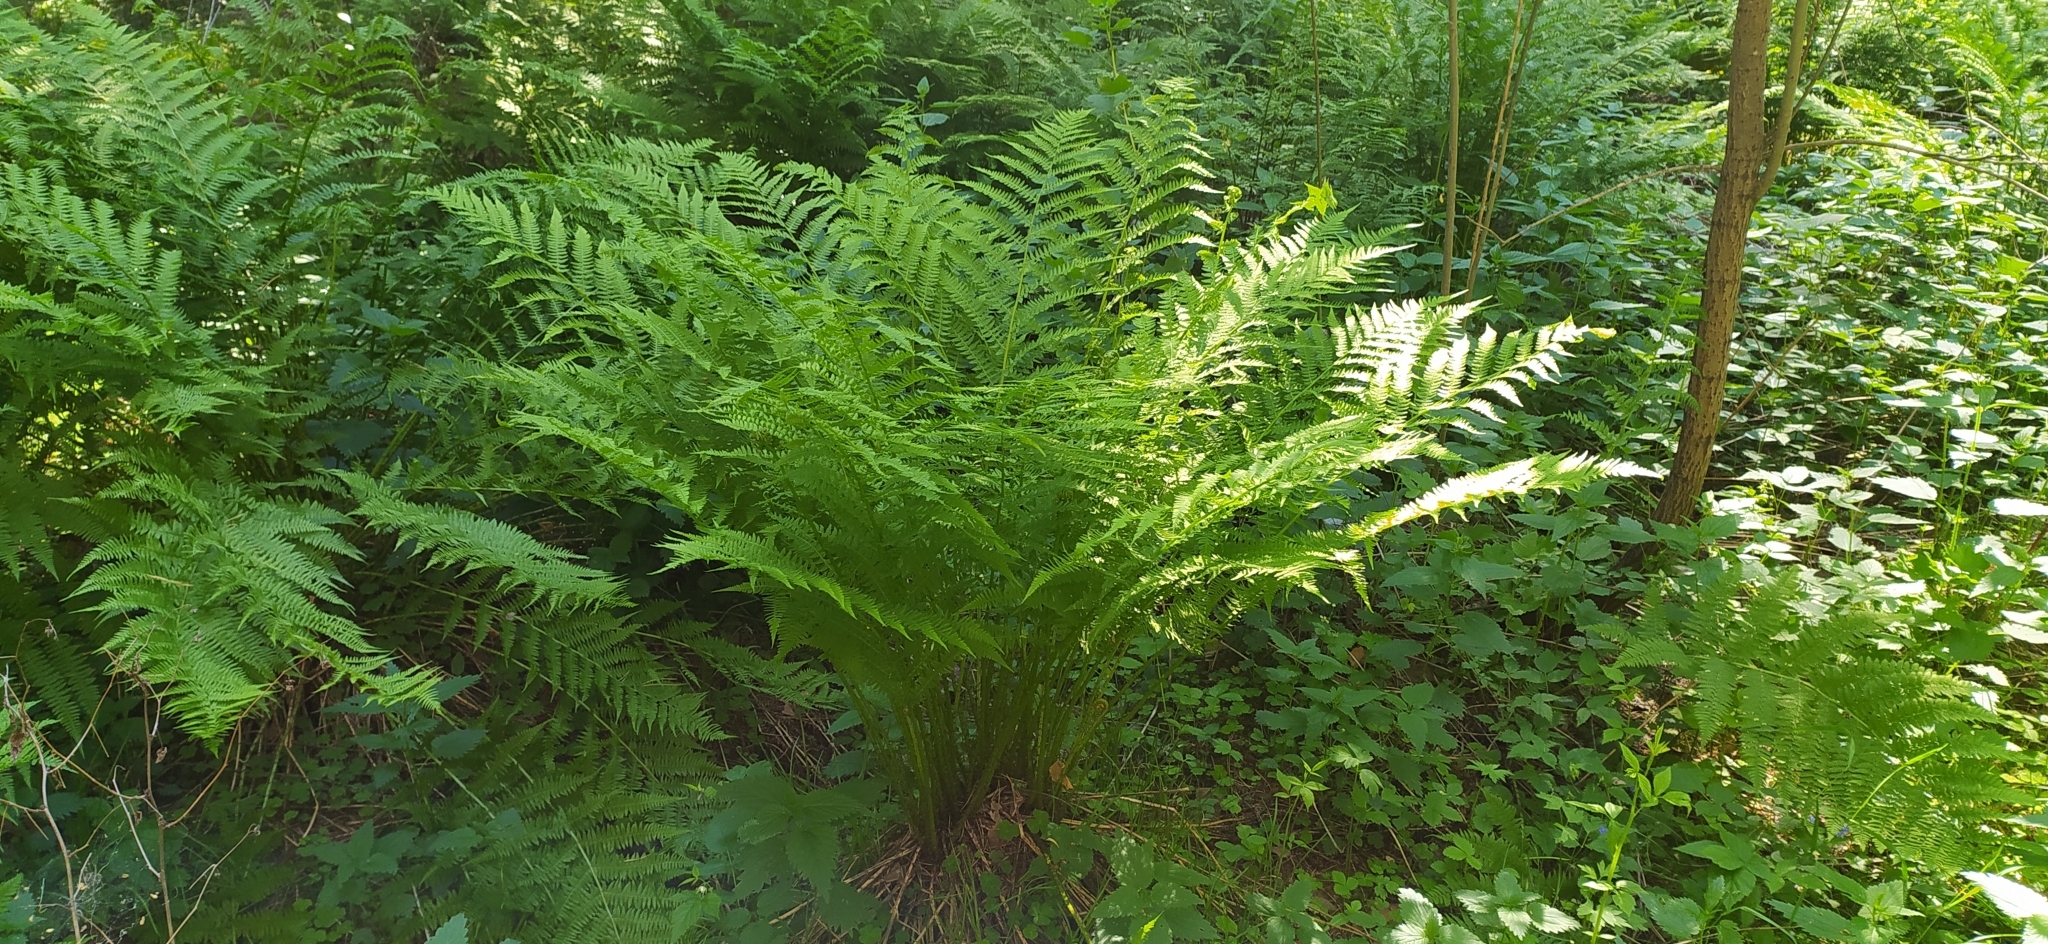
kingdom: Plantae
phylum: Tracheophyta
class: Polypodiopsida
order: Polypodiales
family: Athyriaceae
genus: Athyrium
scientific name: Athyrium filix-femina
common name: Lady fern
